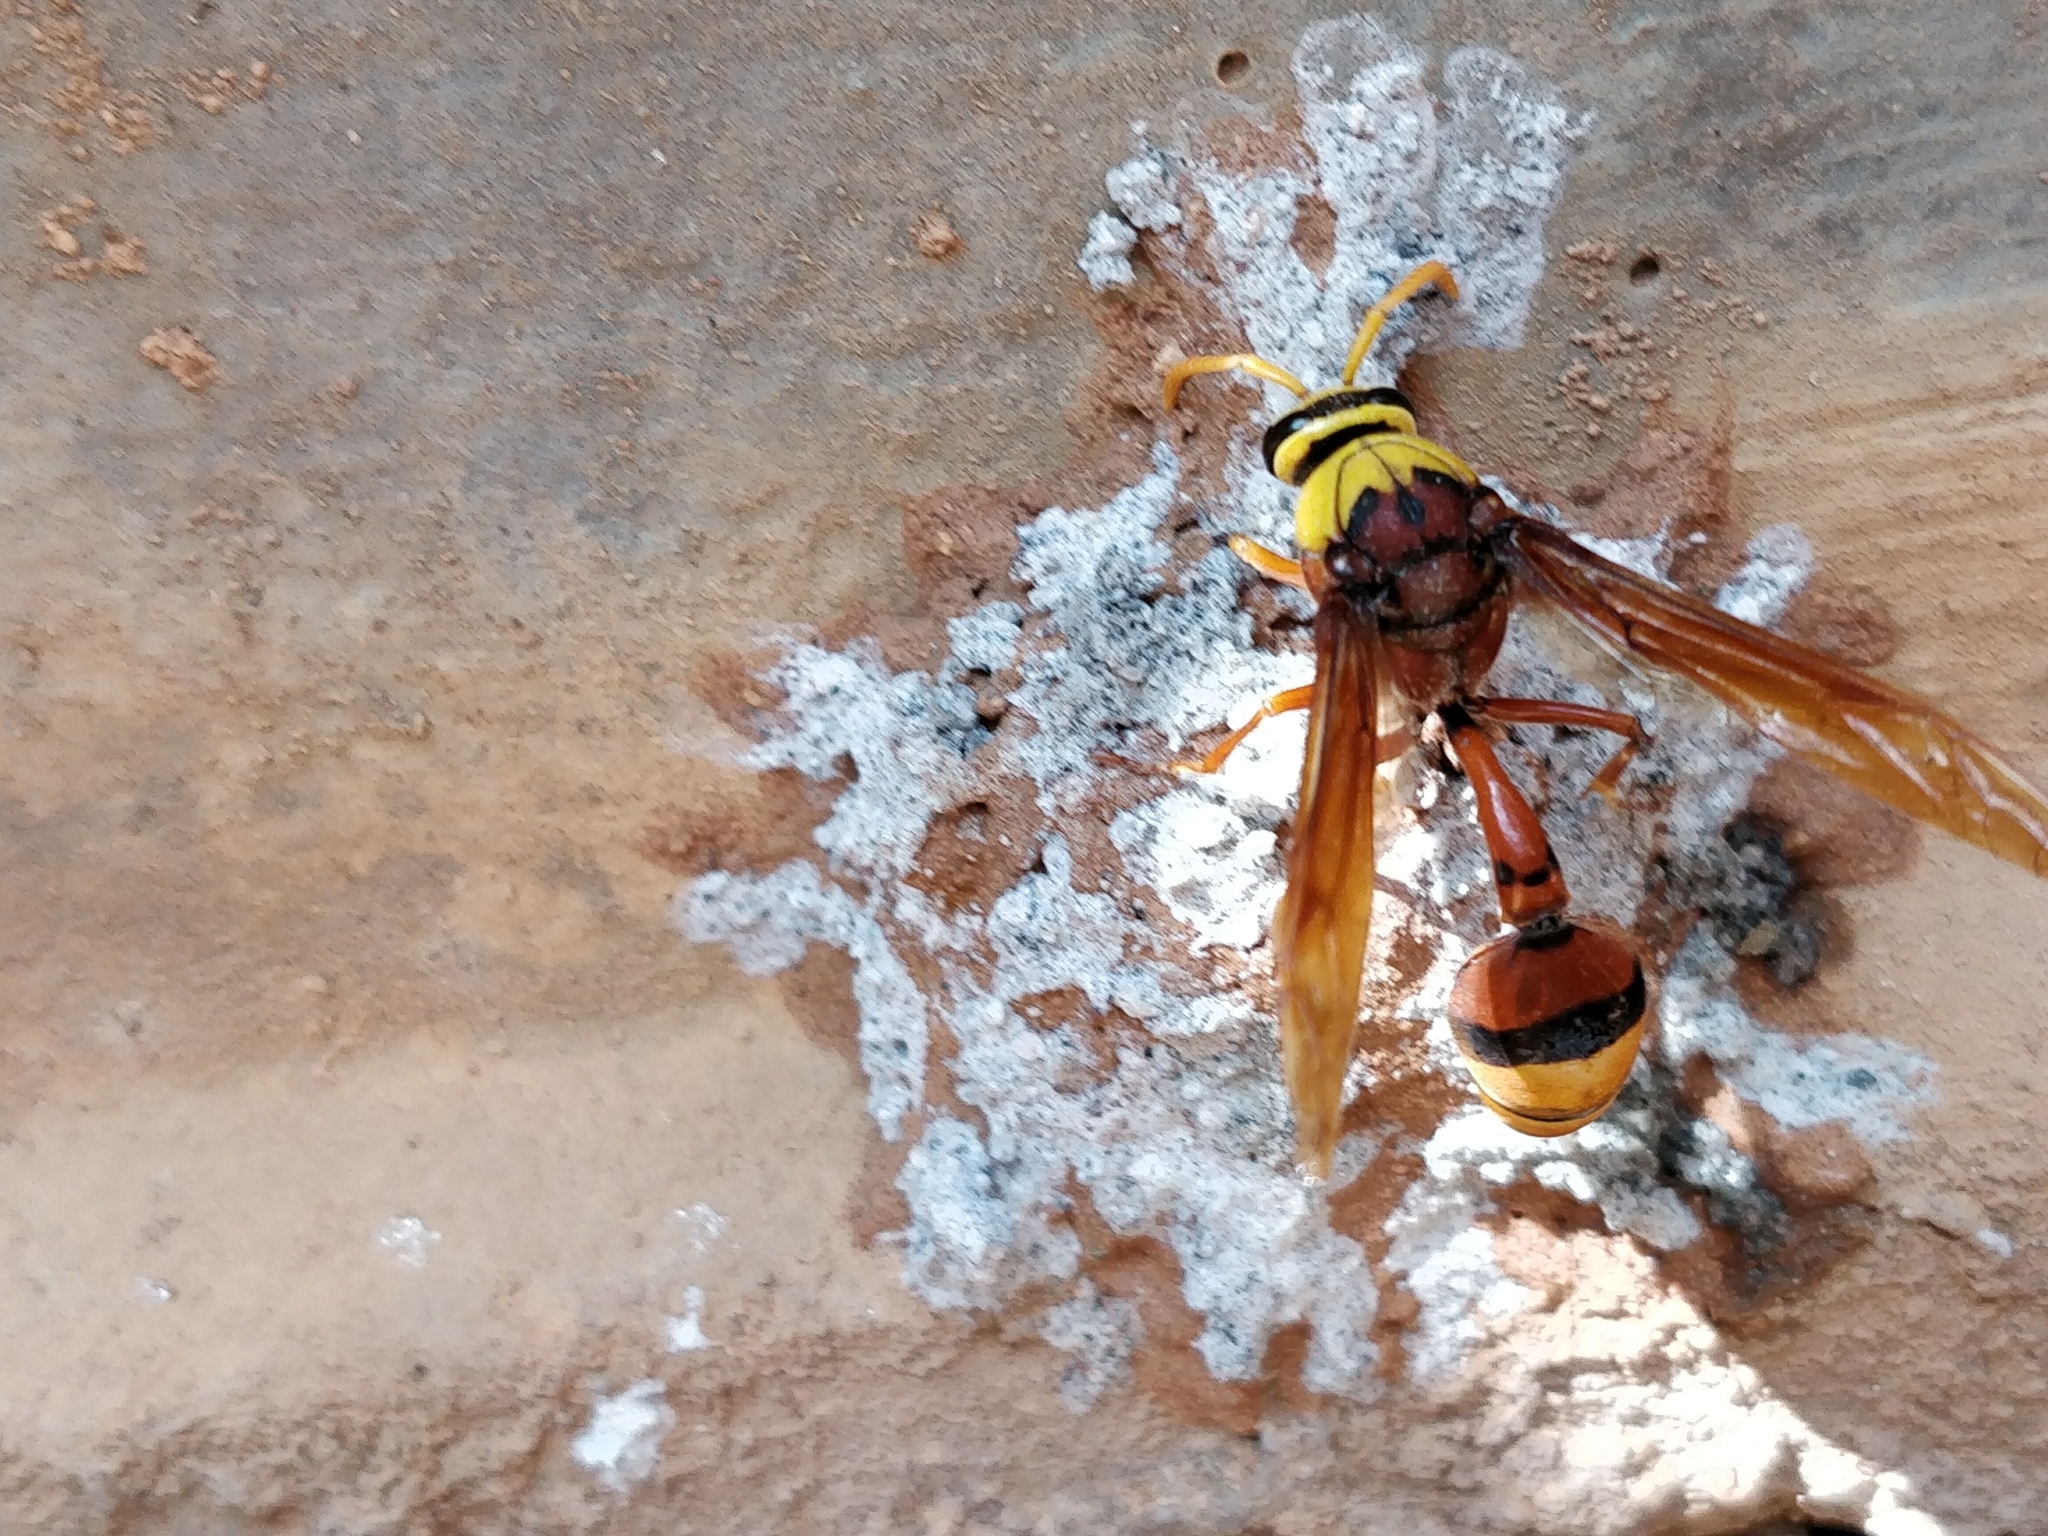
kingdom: Animalia
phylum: Arthropoda
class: Insecta
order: Hymenoptera
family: Eumenidae
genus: Delta
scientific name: Delta pyriforme
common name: Wasp
